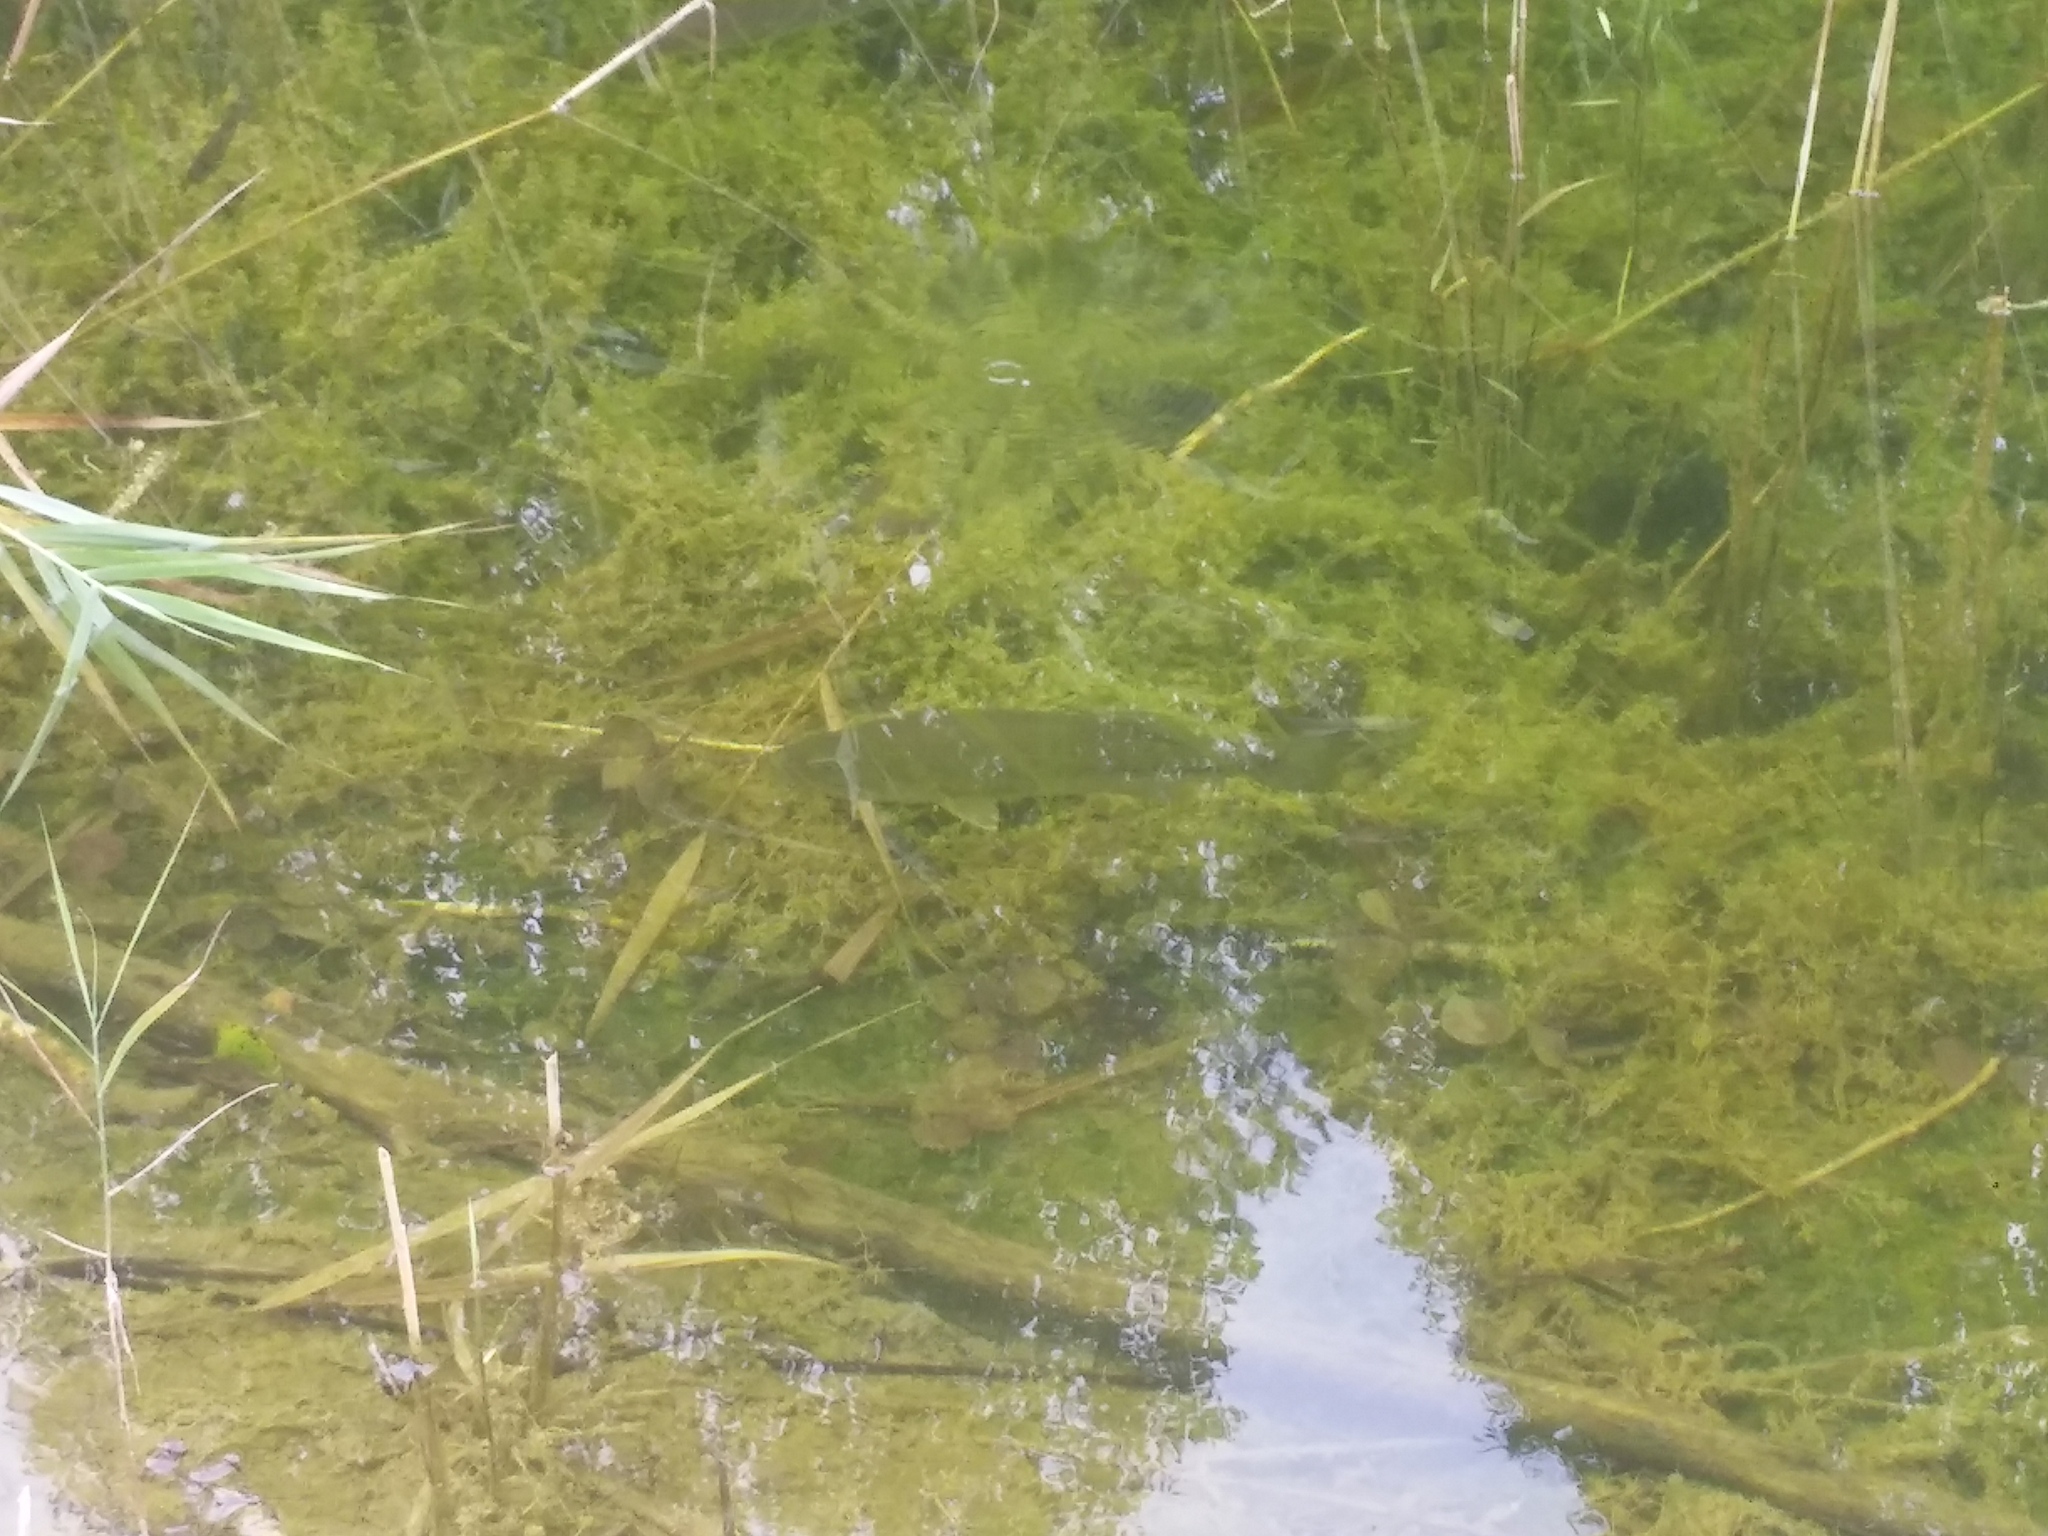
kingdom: Animalia
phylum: Chordata
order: Perciformes
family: Centrarchidae
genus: Micropterus
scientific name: Micropterus
